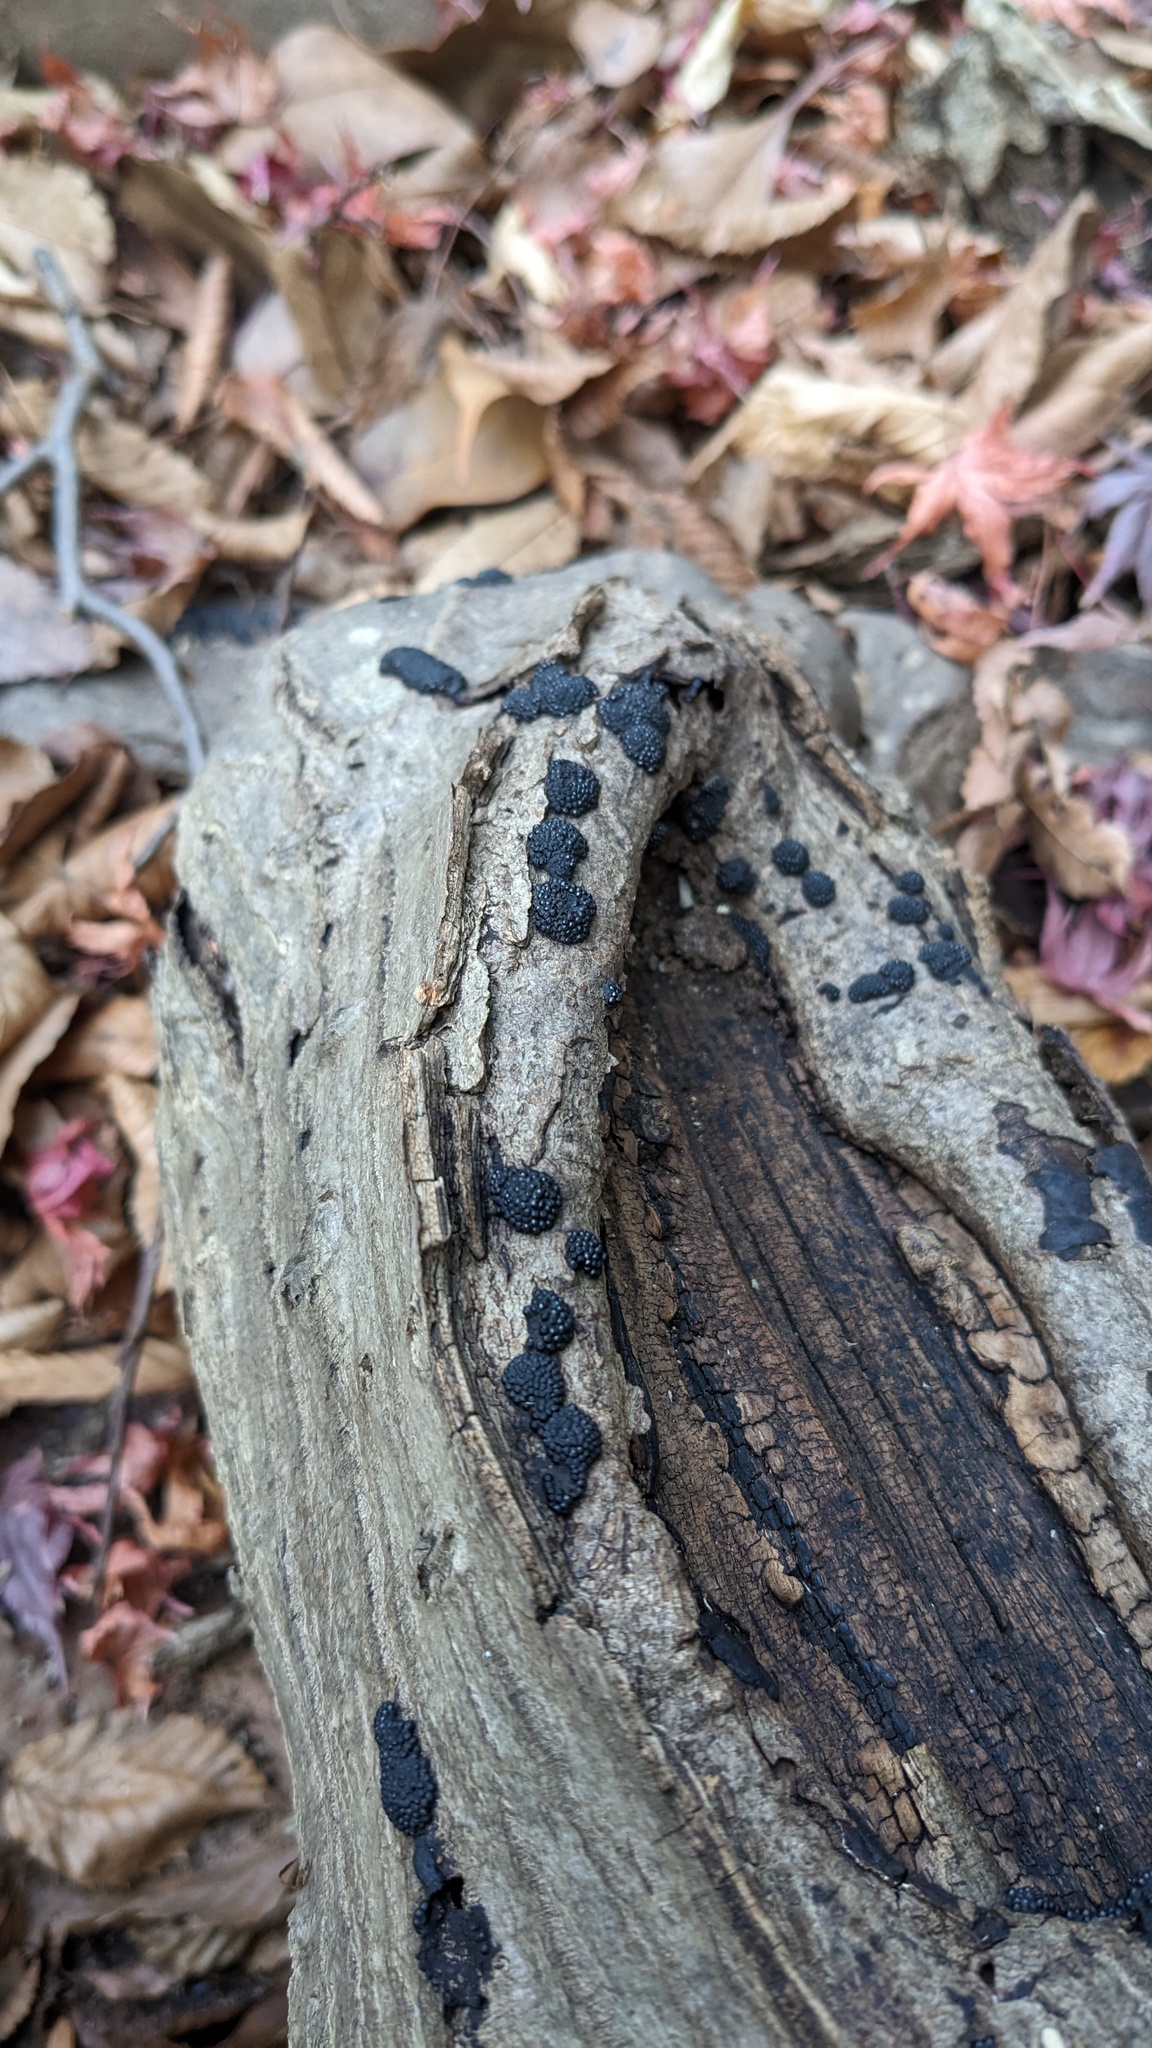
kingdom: Fungi
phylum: Ascomycota
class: Sordariomycetes
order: Xylariales
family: Hypoxylaceae
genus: Annulohypoxylon
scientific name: Annulohypoxylon truncatum
